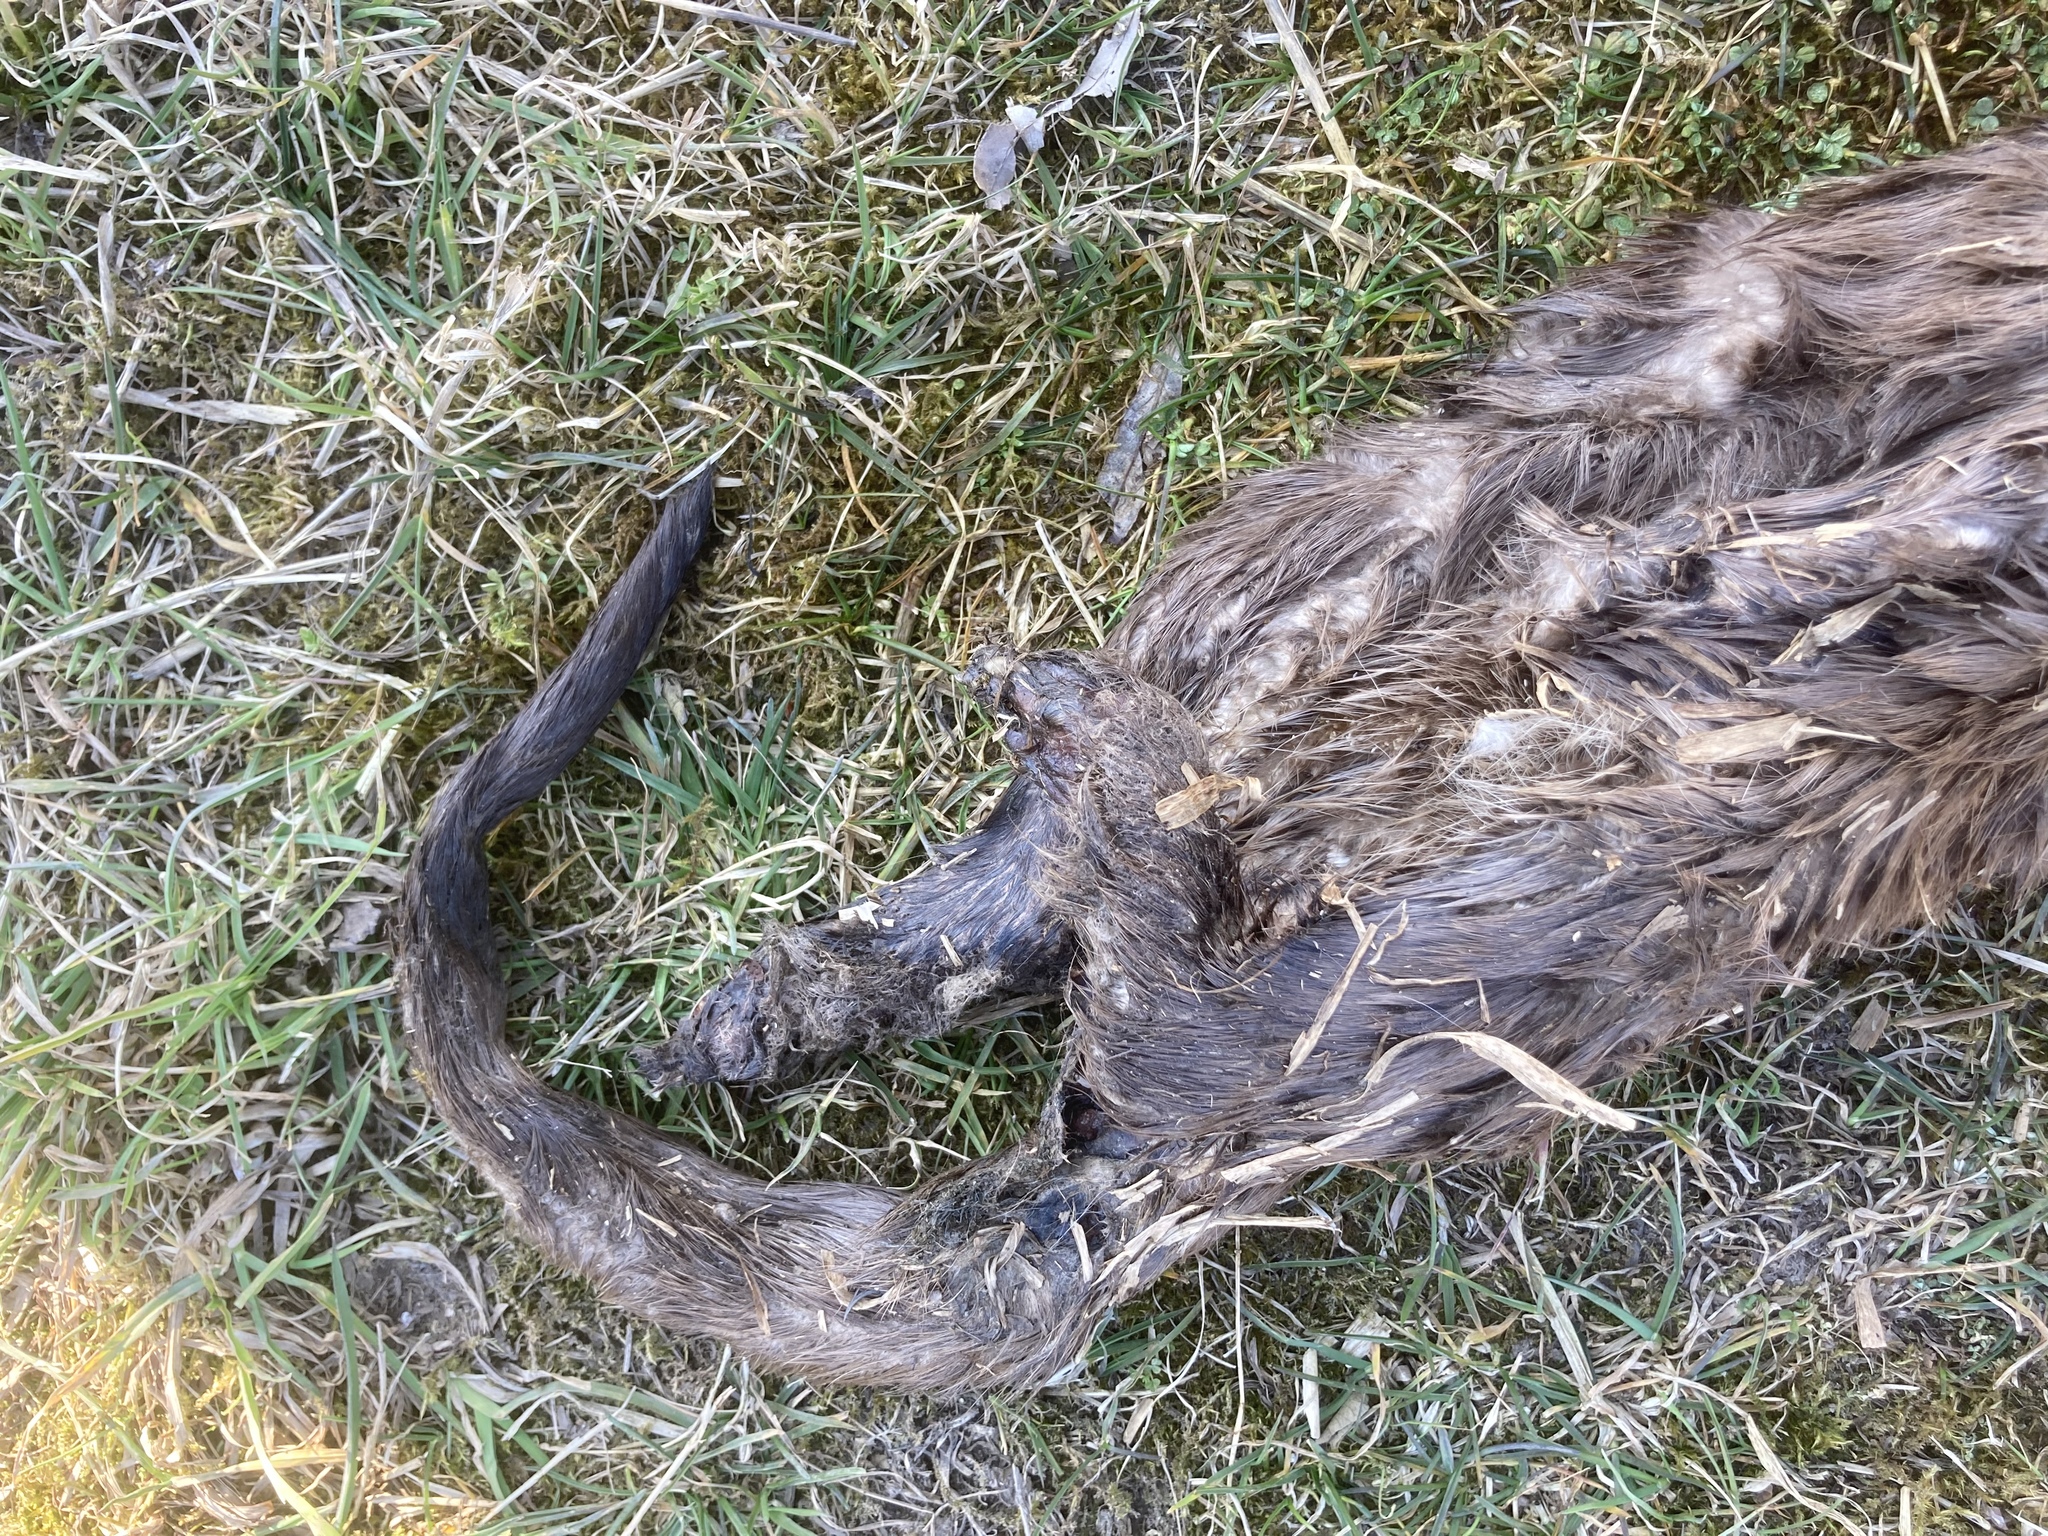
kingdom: Animalia
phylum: Chordata
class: Mammalia
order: Carnivora
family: Mustelidae
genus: Lutra
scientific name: Lutra lutra
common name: European otter
